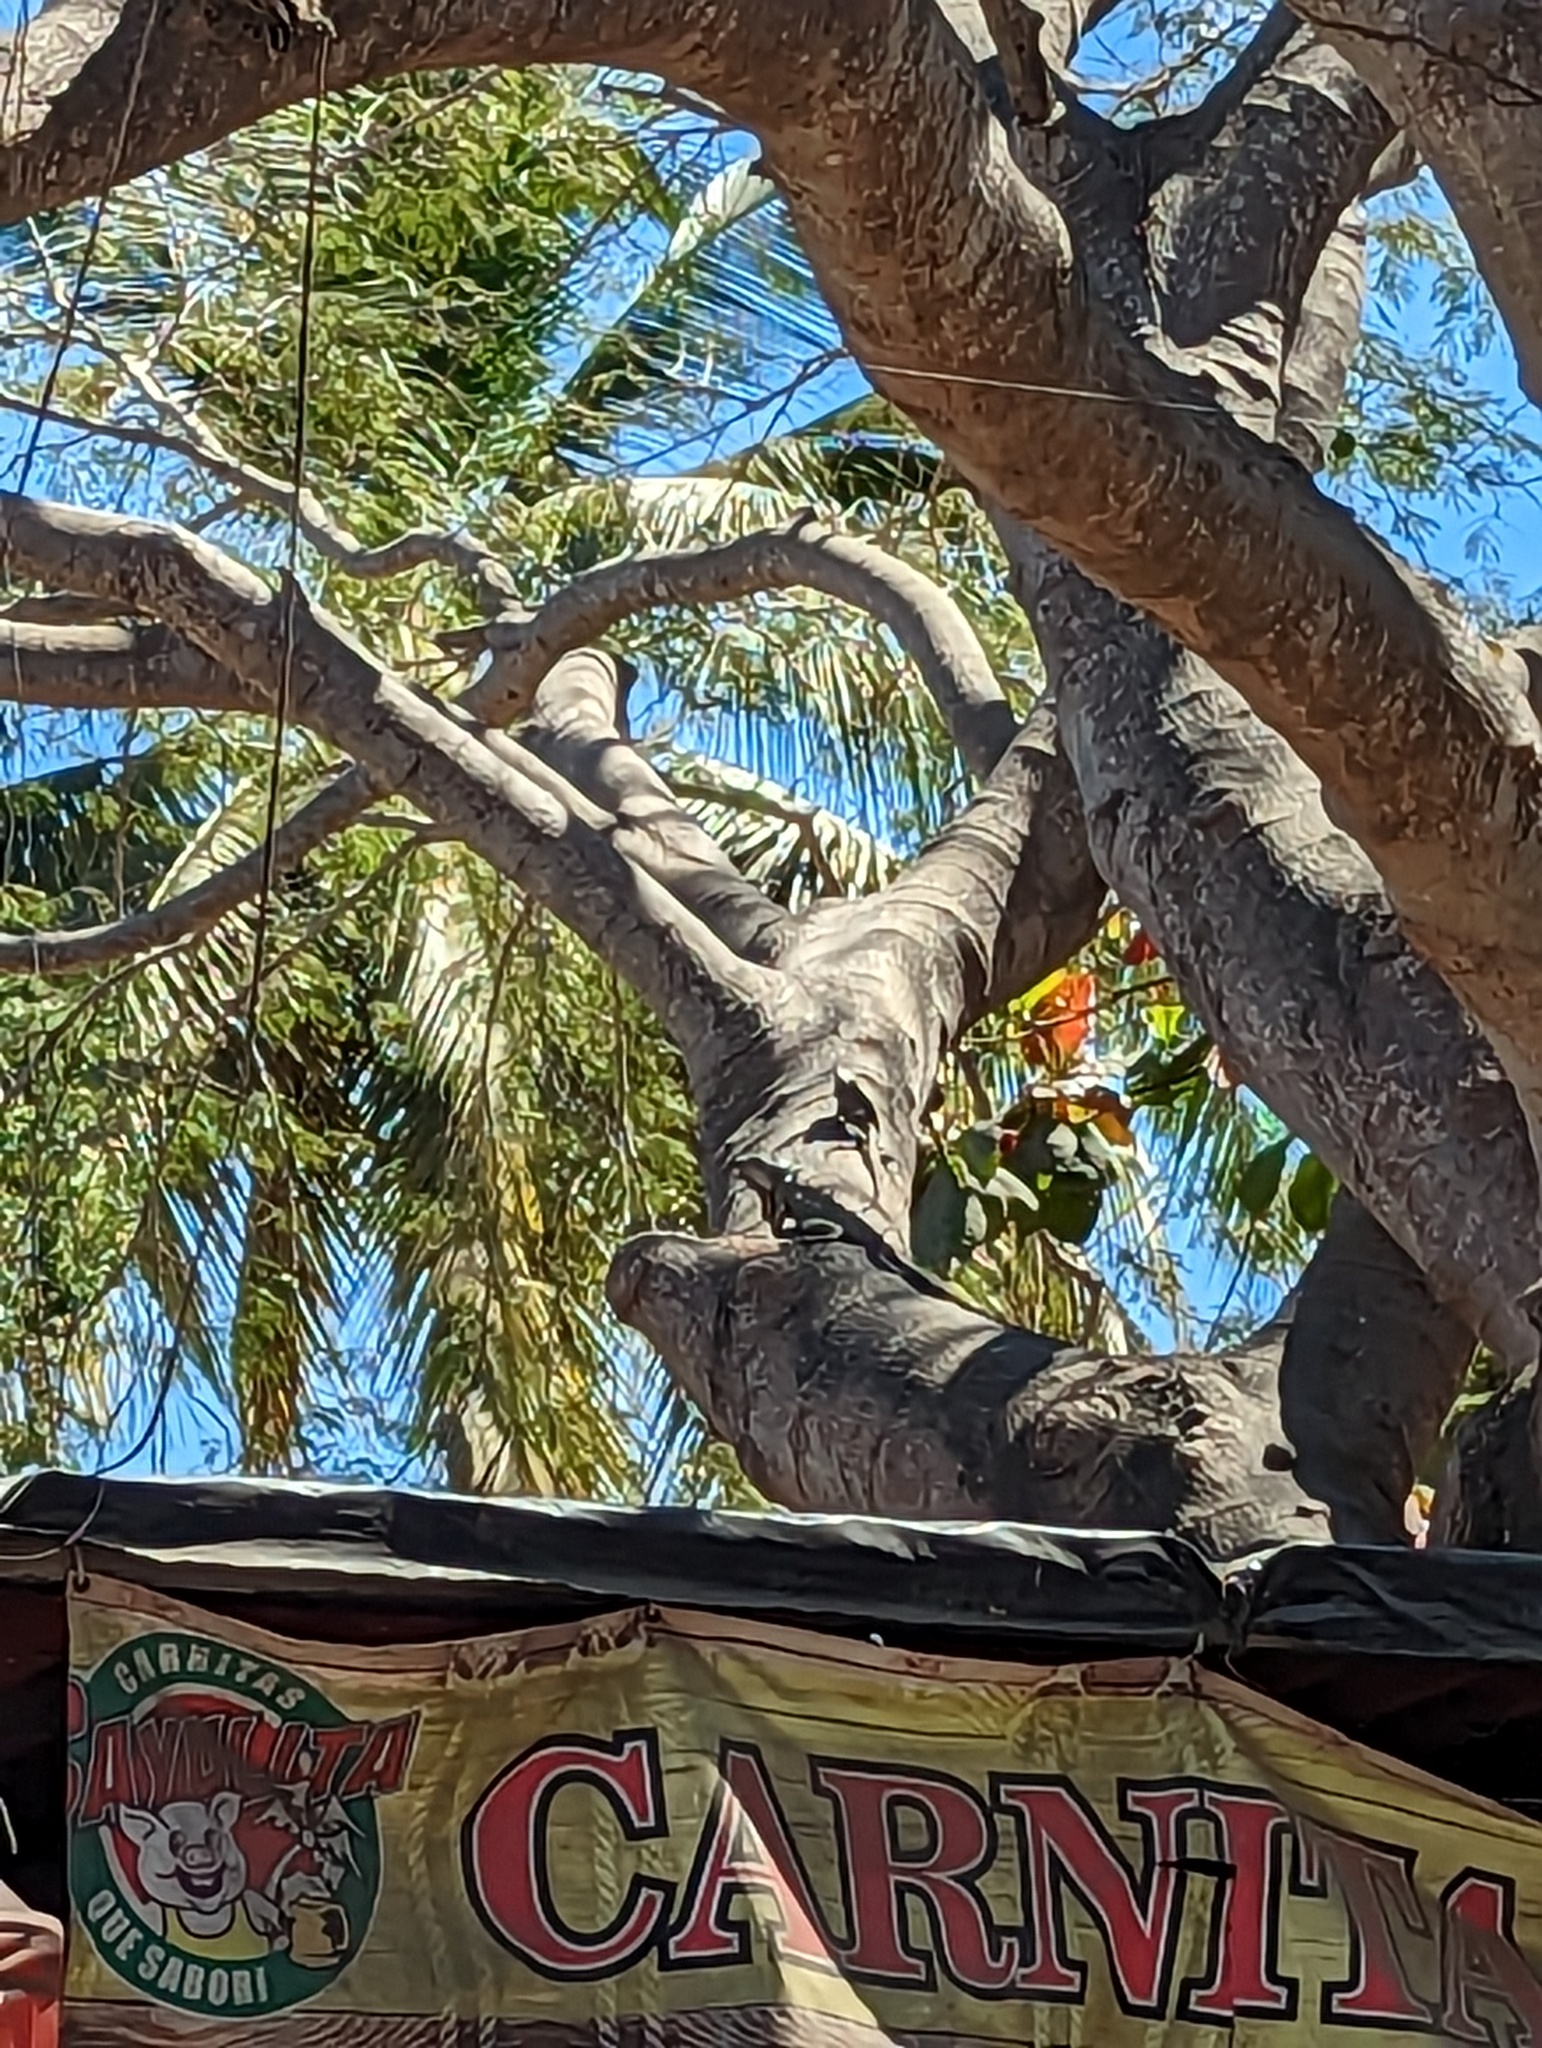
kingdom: Animalia
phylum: Chordata
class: Squamata
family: Iguanidae
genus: Iguana
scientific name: Iguana iguana
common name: Green iguana
